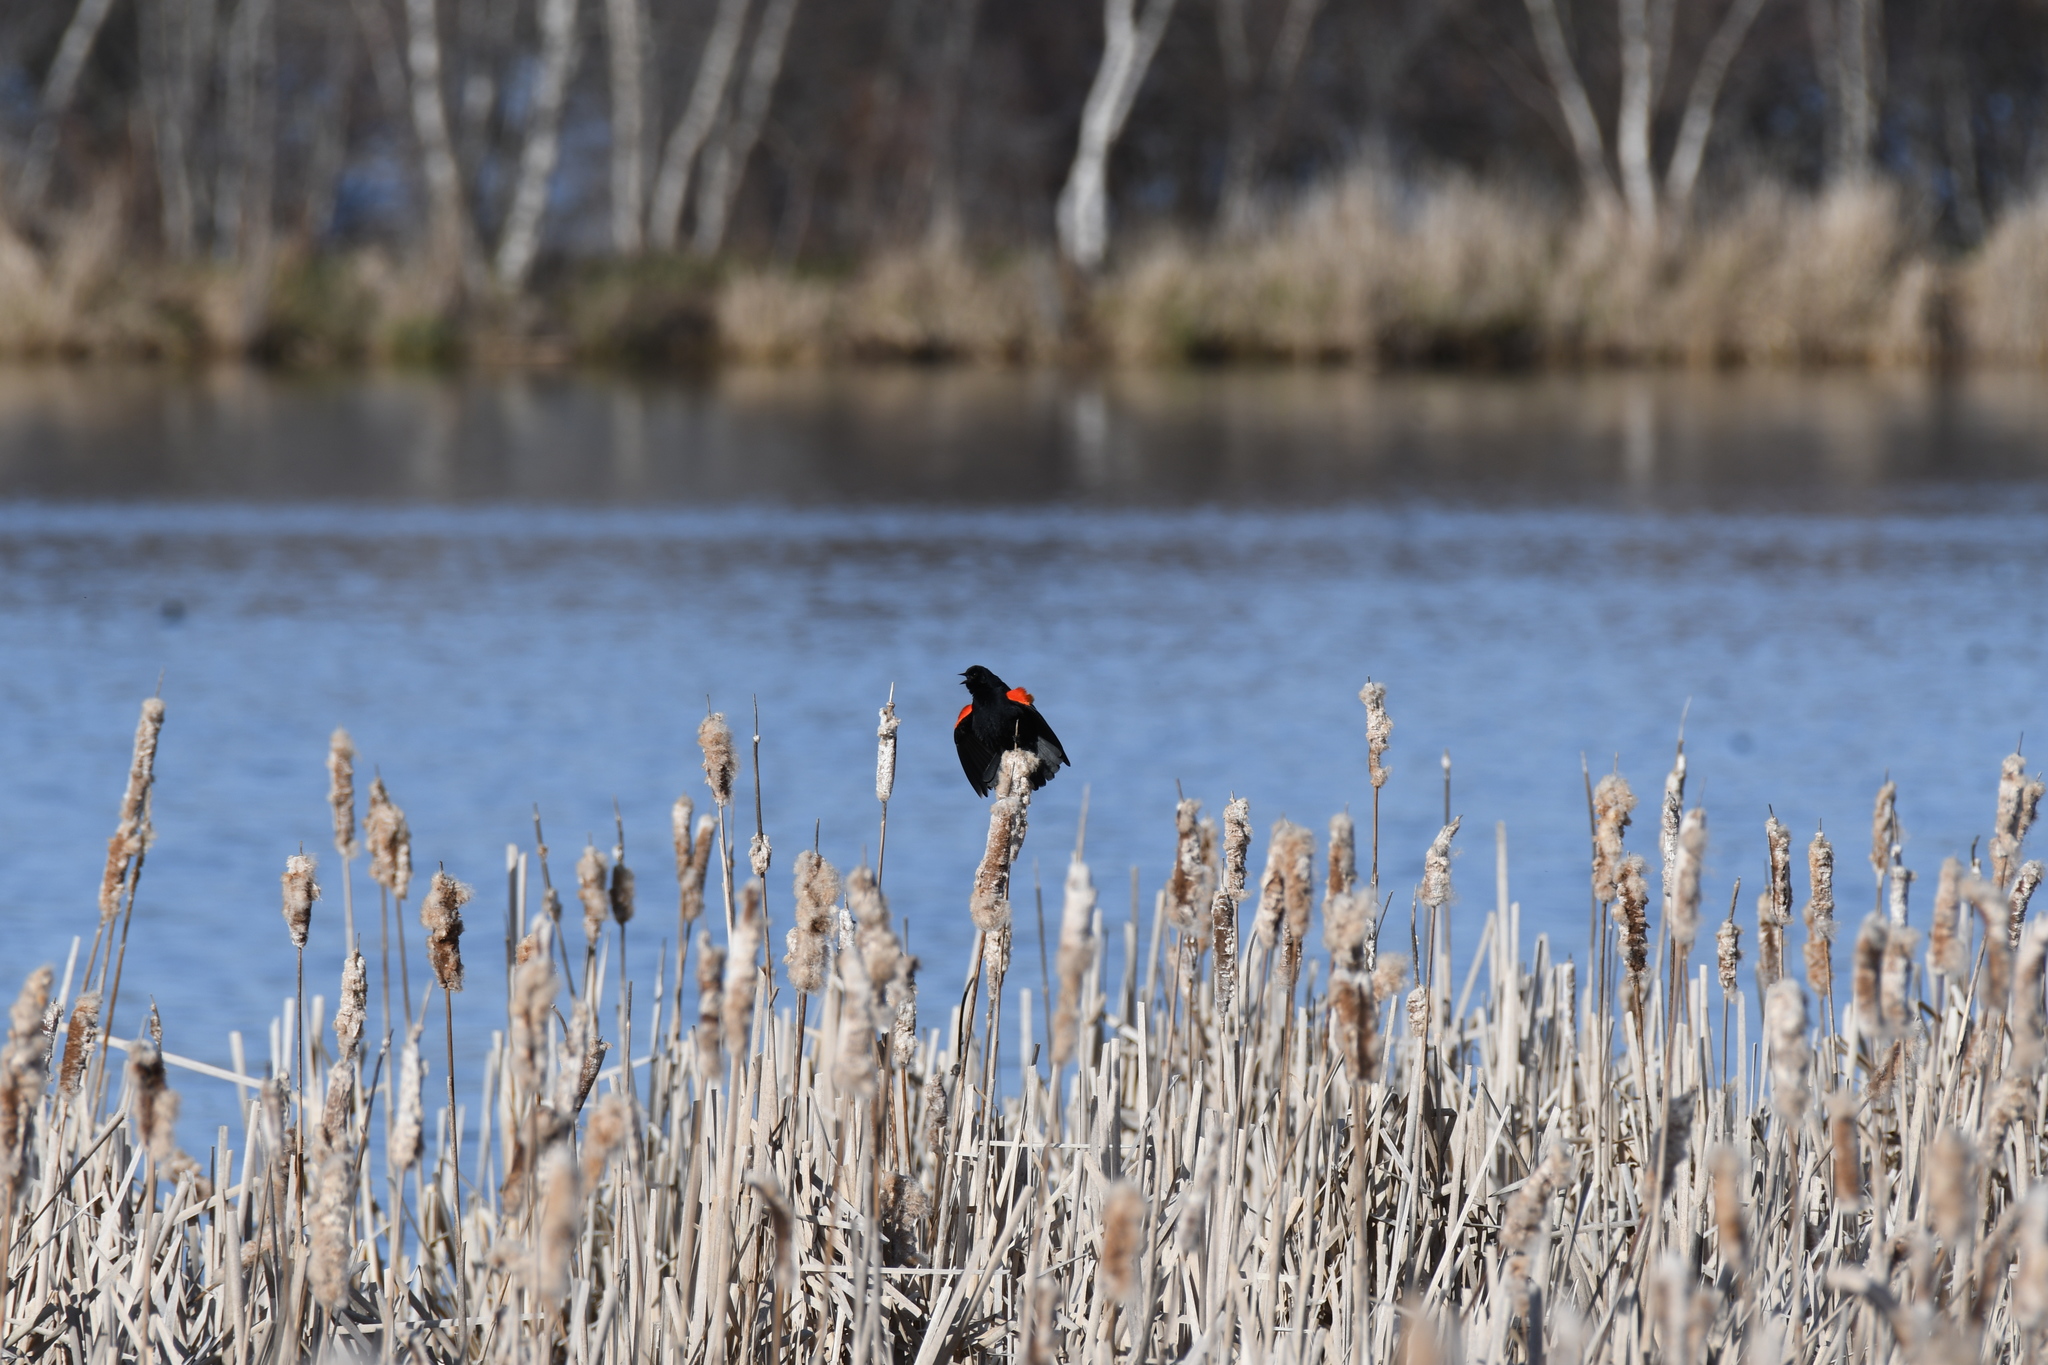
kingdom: Animalia
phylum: Chordata
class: Aves
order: Passeriformes
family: Icteridae
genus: Agelaius
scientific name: Agelaius phoeniceus
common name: Red-winged blackbird
